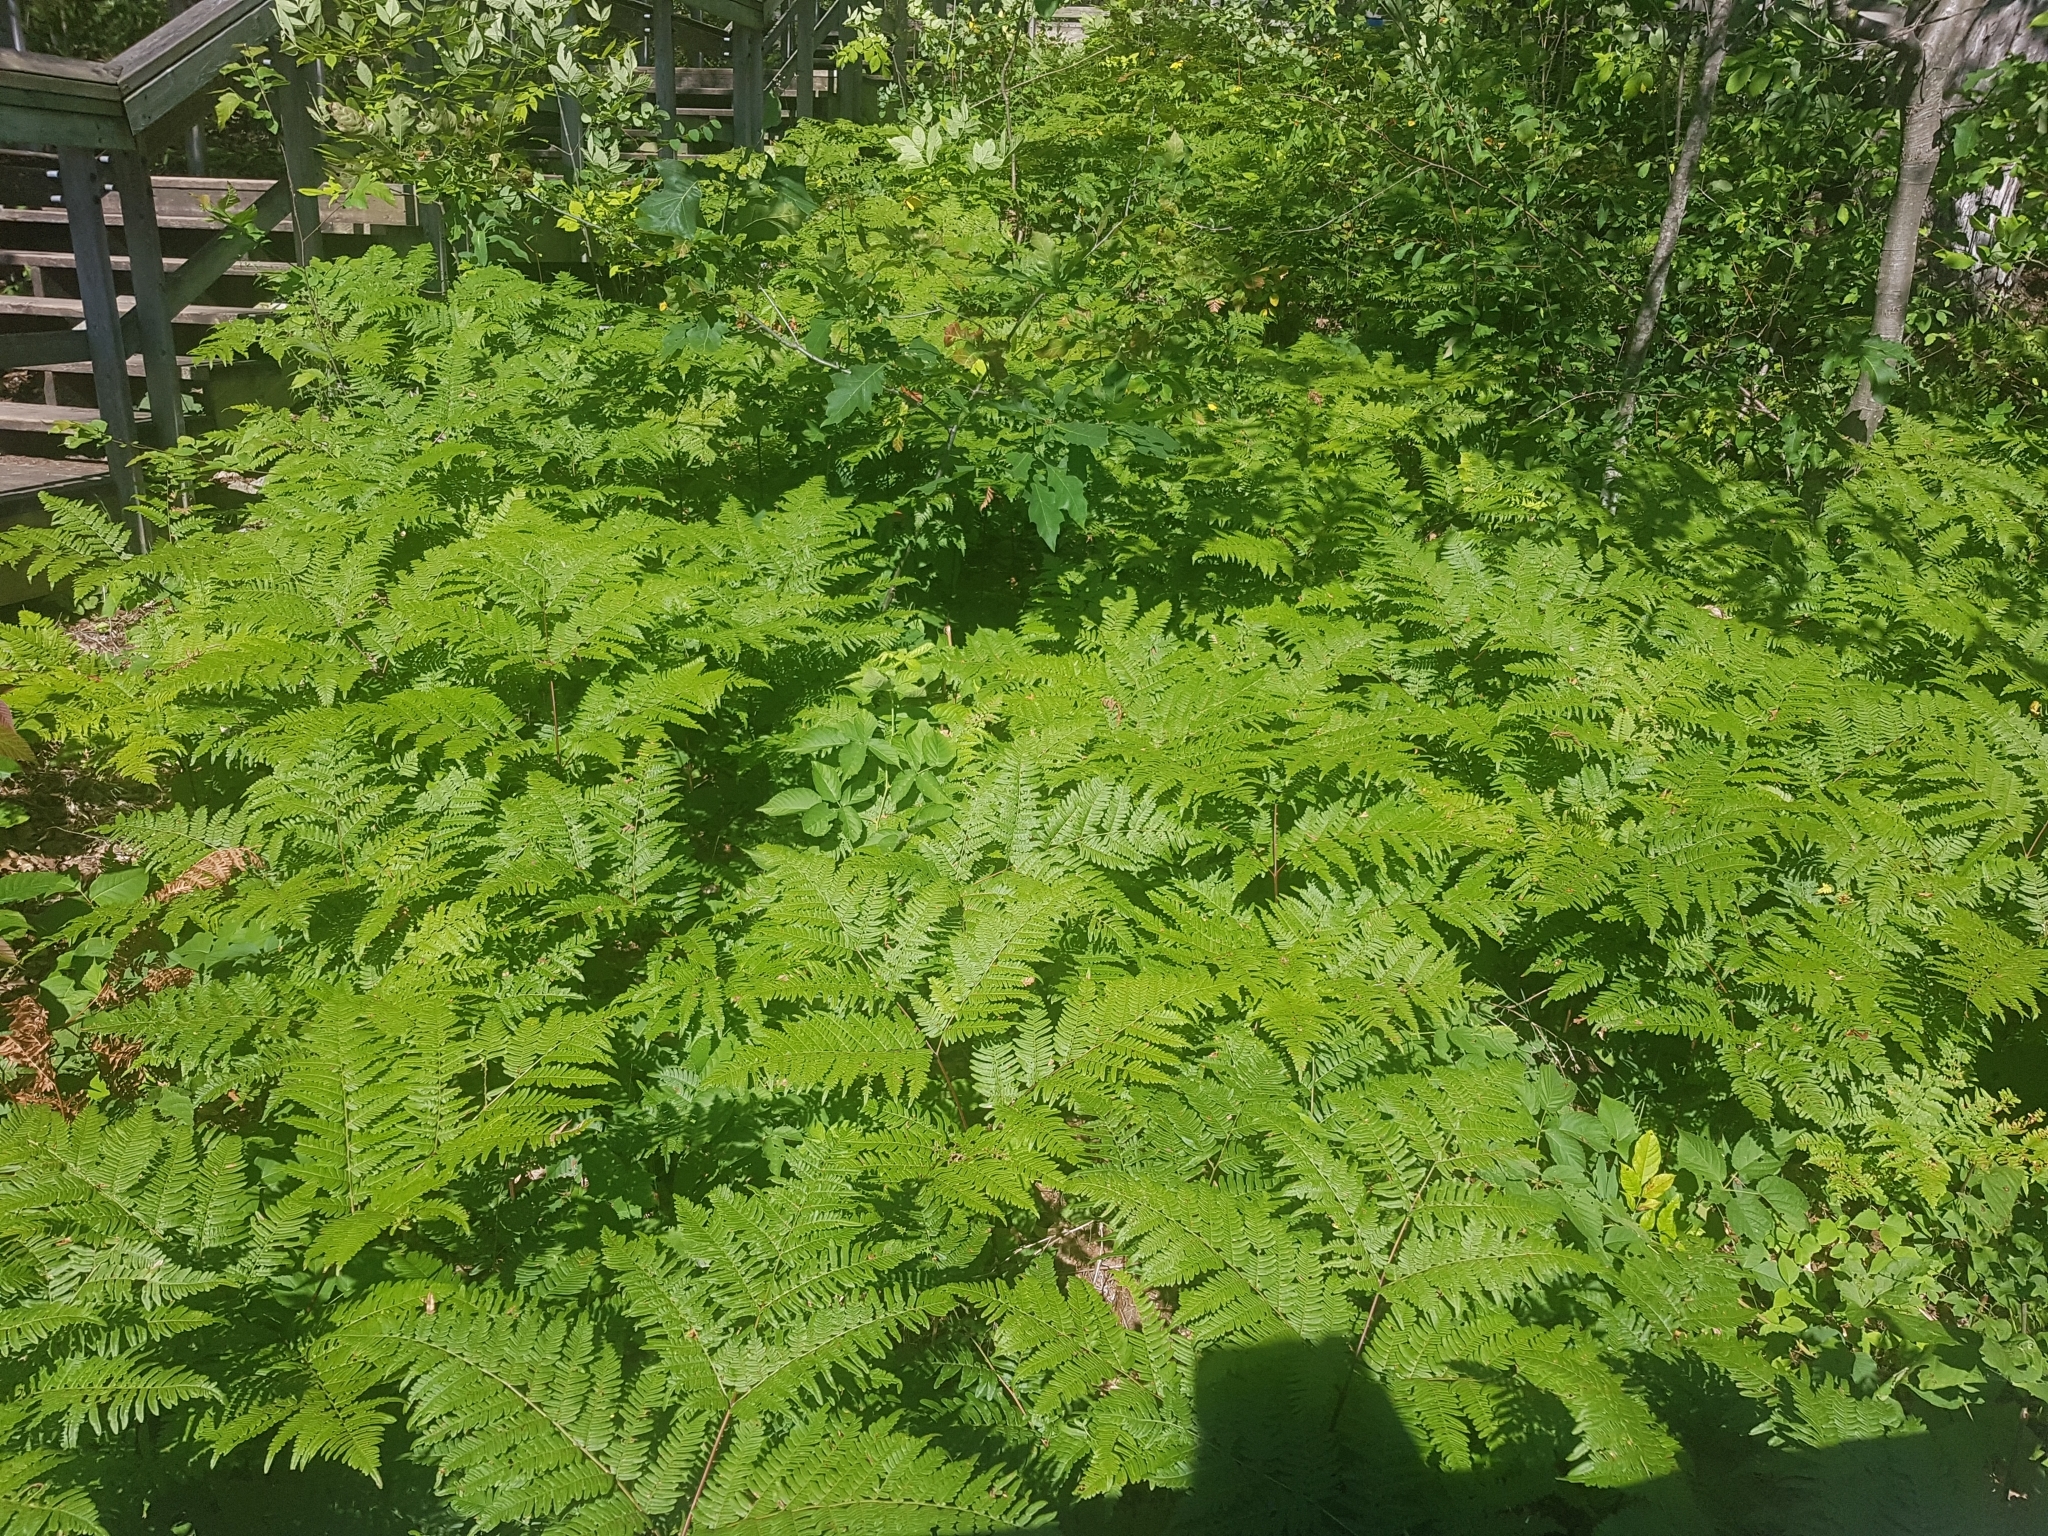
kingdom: Plantae
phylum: Tracheophyta
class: Polypodiopsida
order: Polypodiales
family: Dennstaedtiaceae
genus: Pteridium
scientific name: Pteridium aquilinum
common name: Bracken
